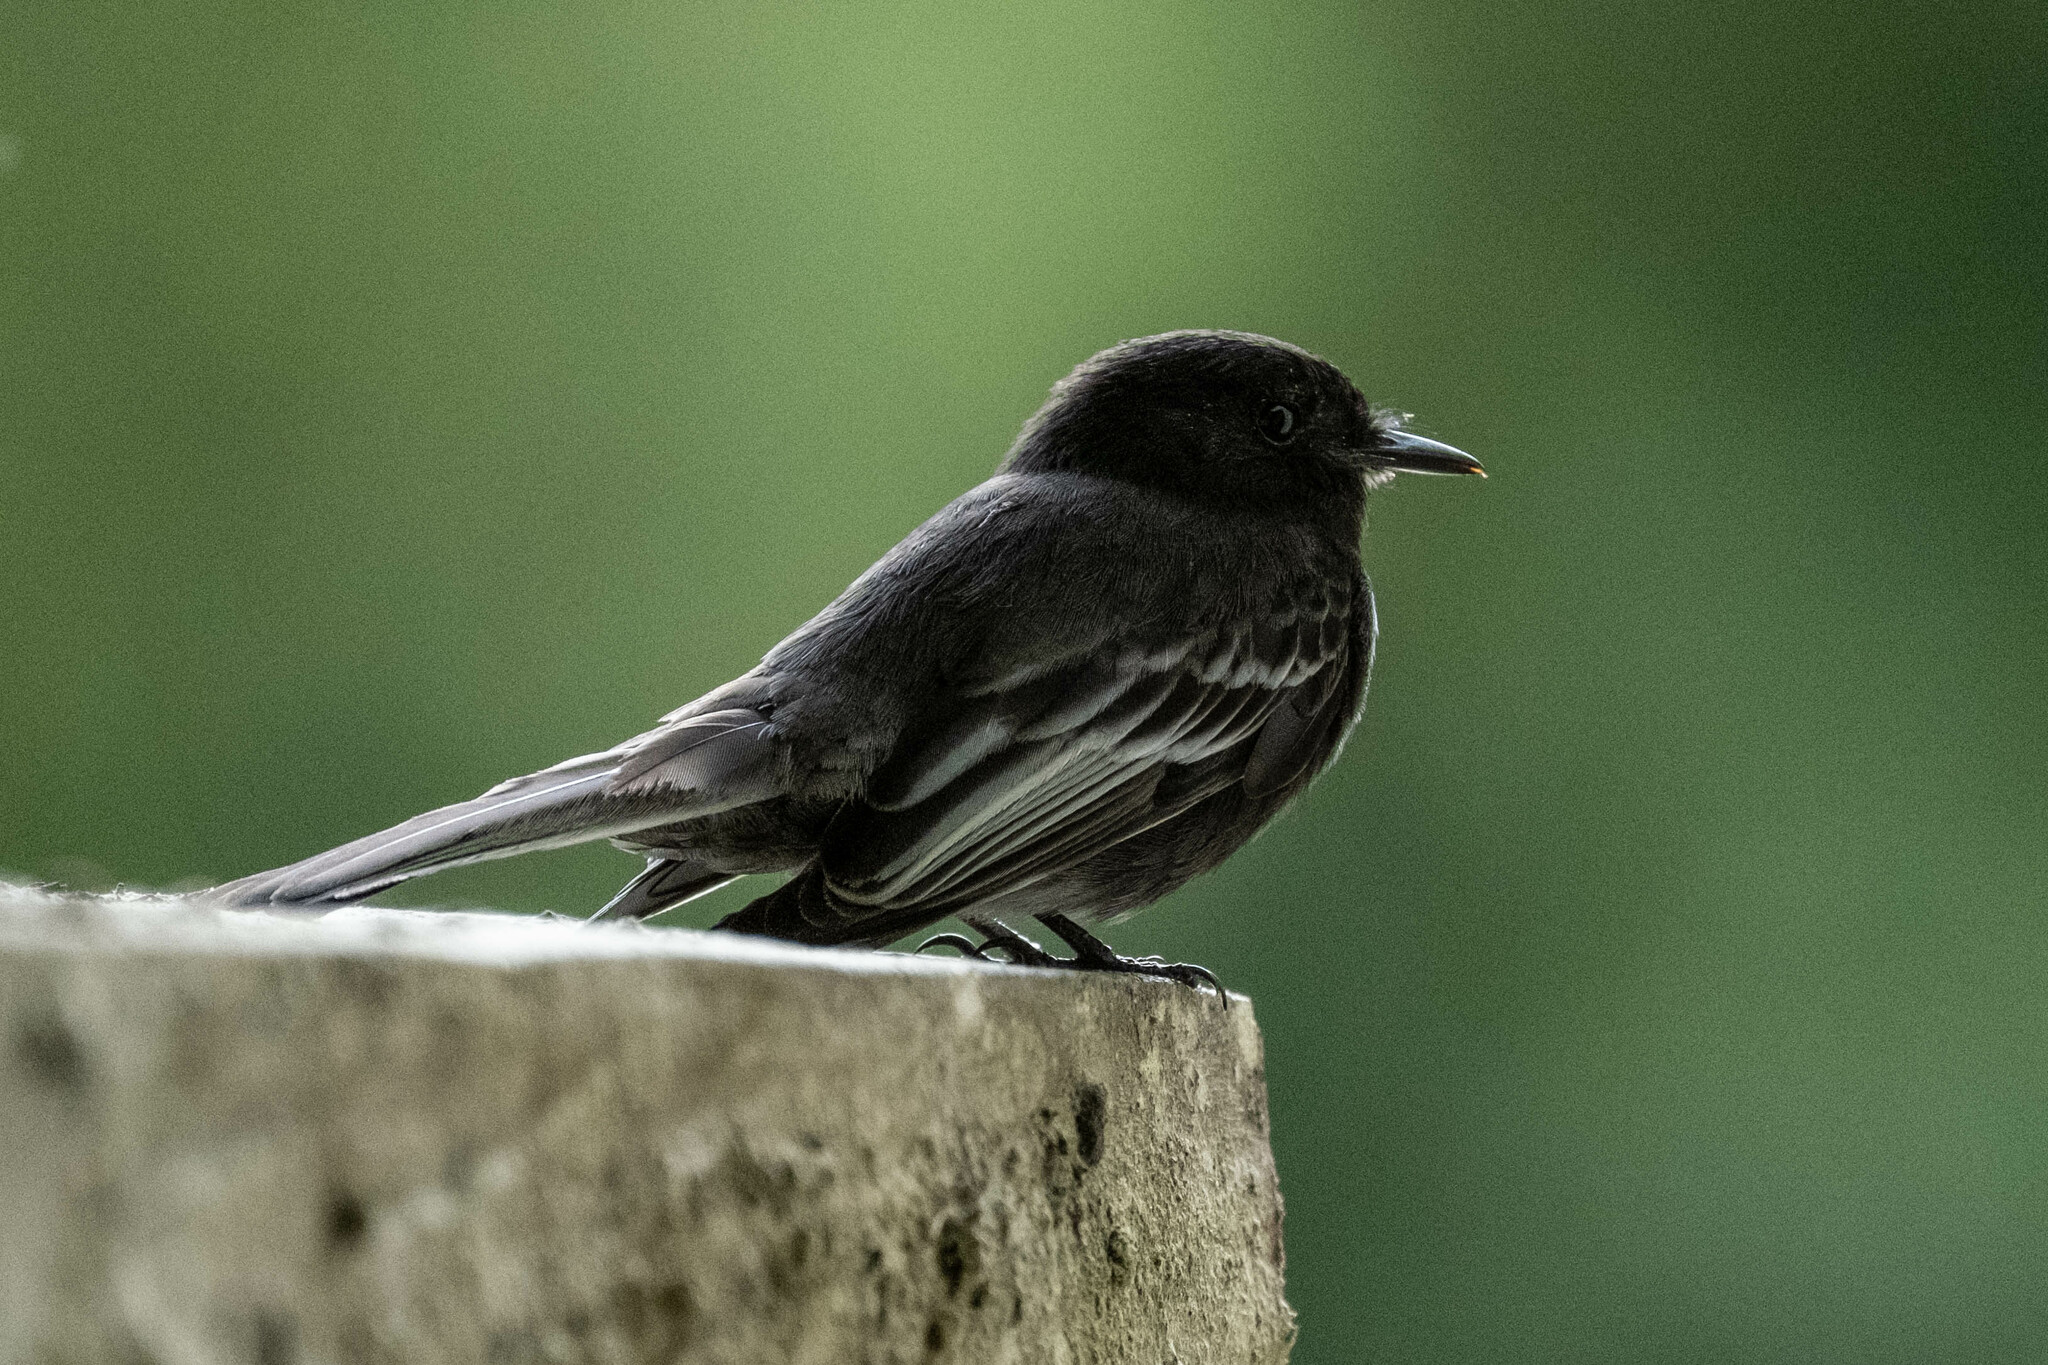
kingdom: Animalia
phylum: Chordata
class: Aves
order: Passeriformes
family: Tyrannidae
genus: Sayornis
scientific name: Sayornis nigricans
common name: Black phoebe
